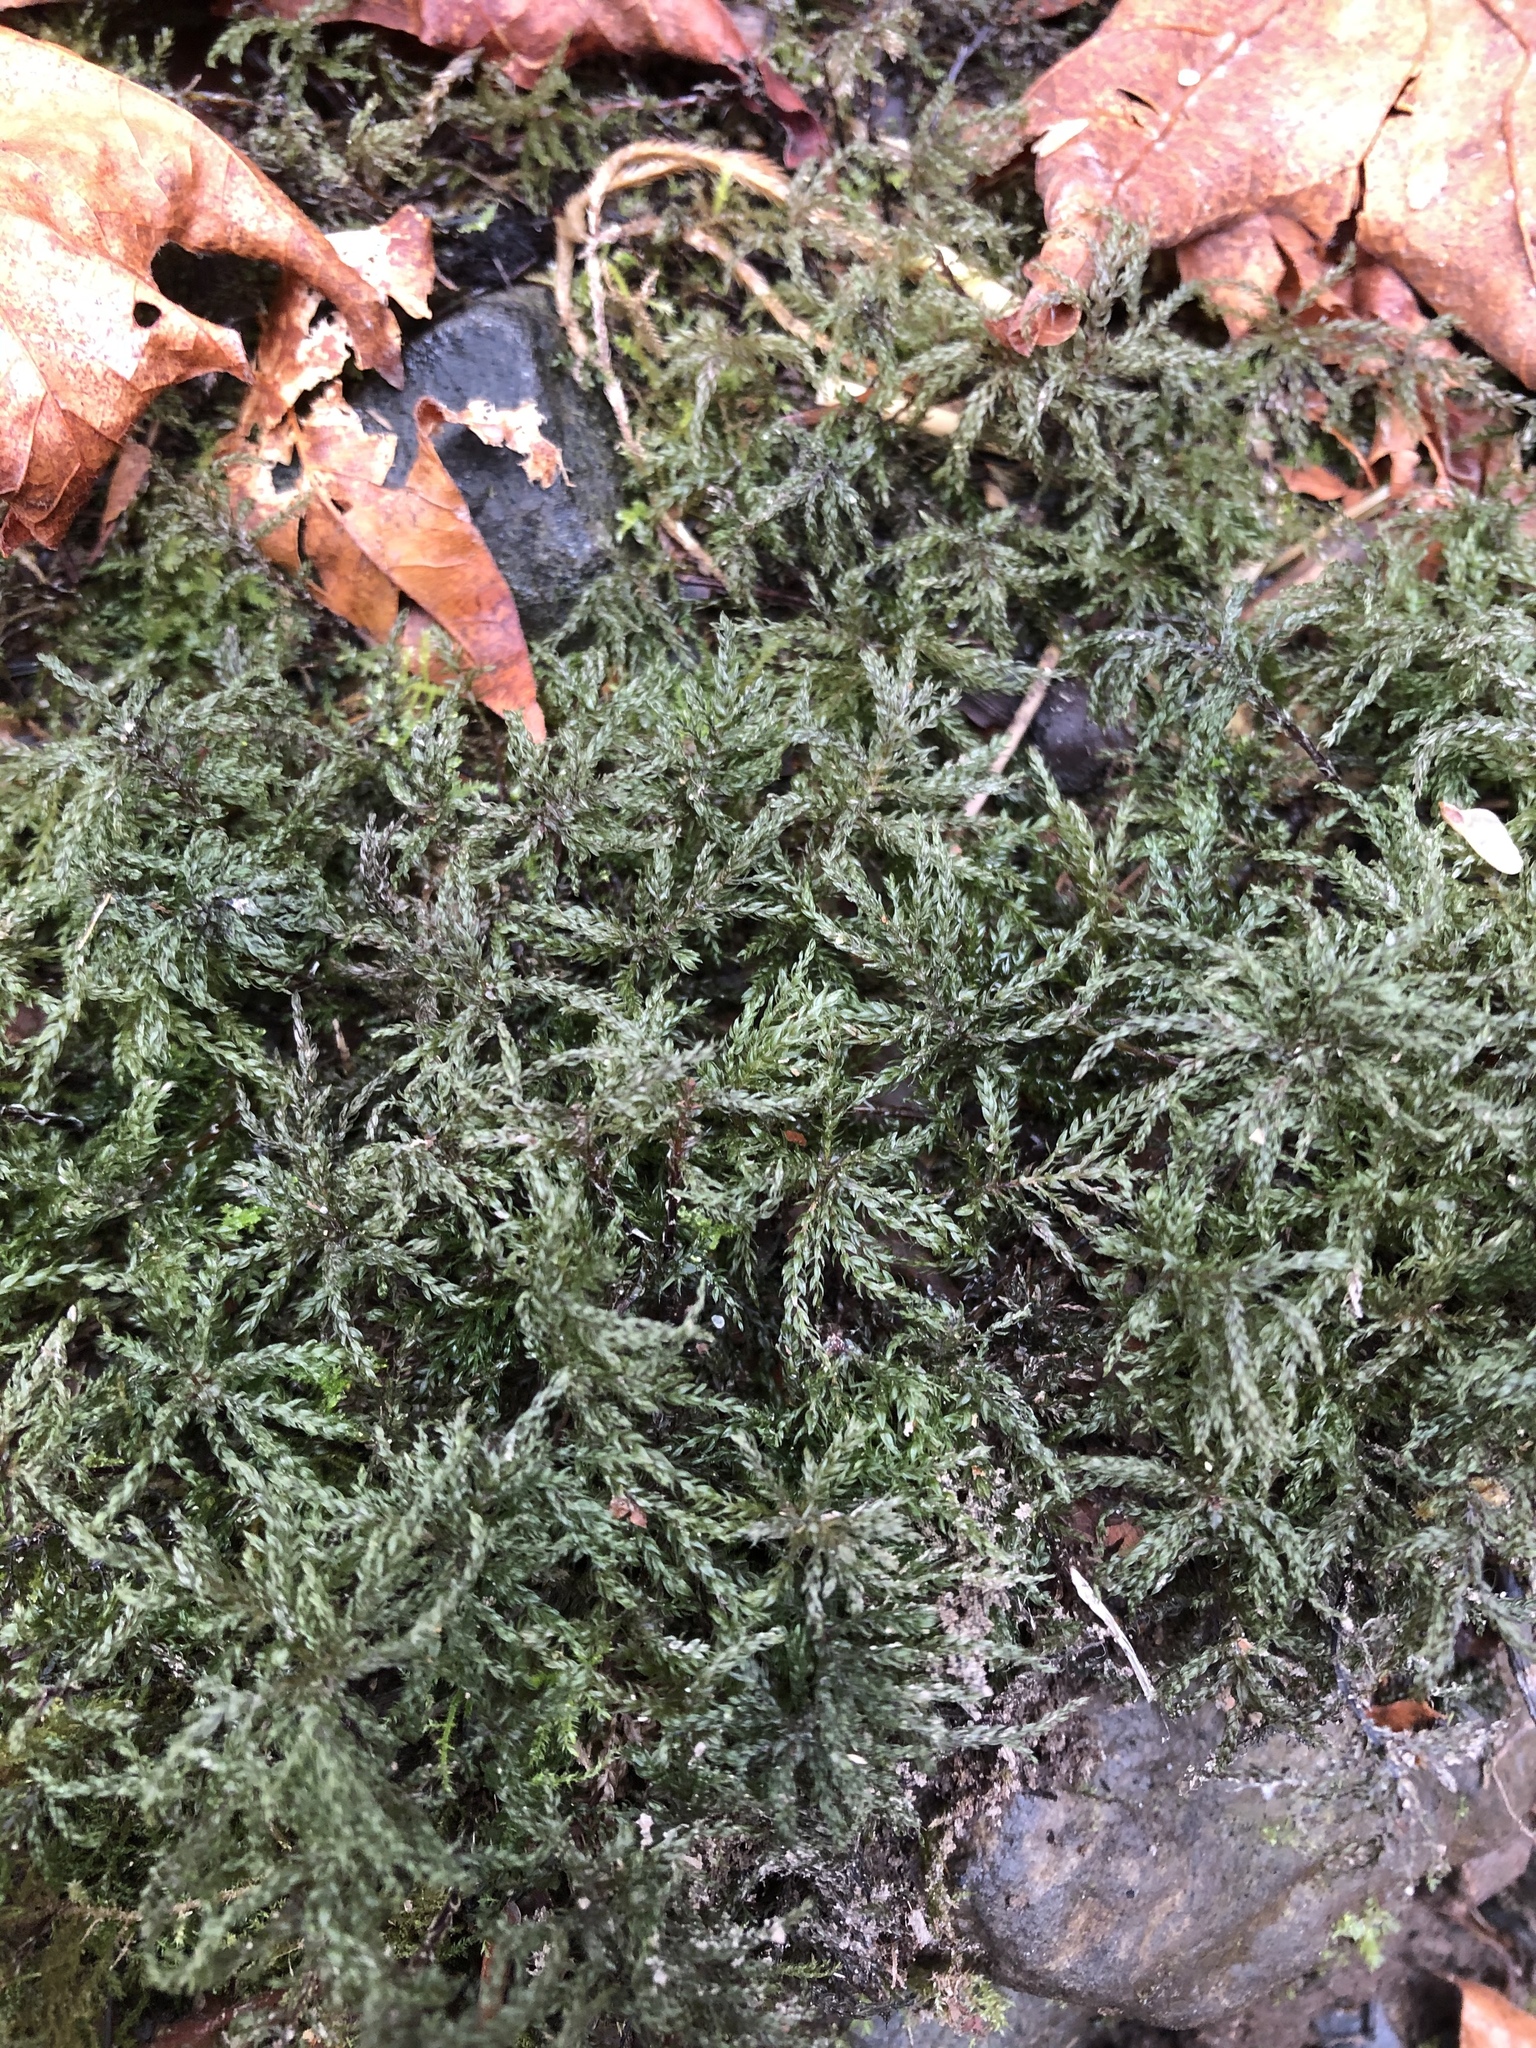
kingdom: Plantae
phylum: Bryophyta
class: Bryopsida
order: Bryales
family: Mniaceae
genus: Leucolepis
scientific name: Leucolepis acanthoneura
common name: Leucolepis umbrella moss
